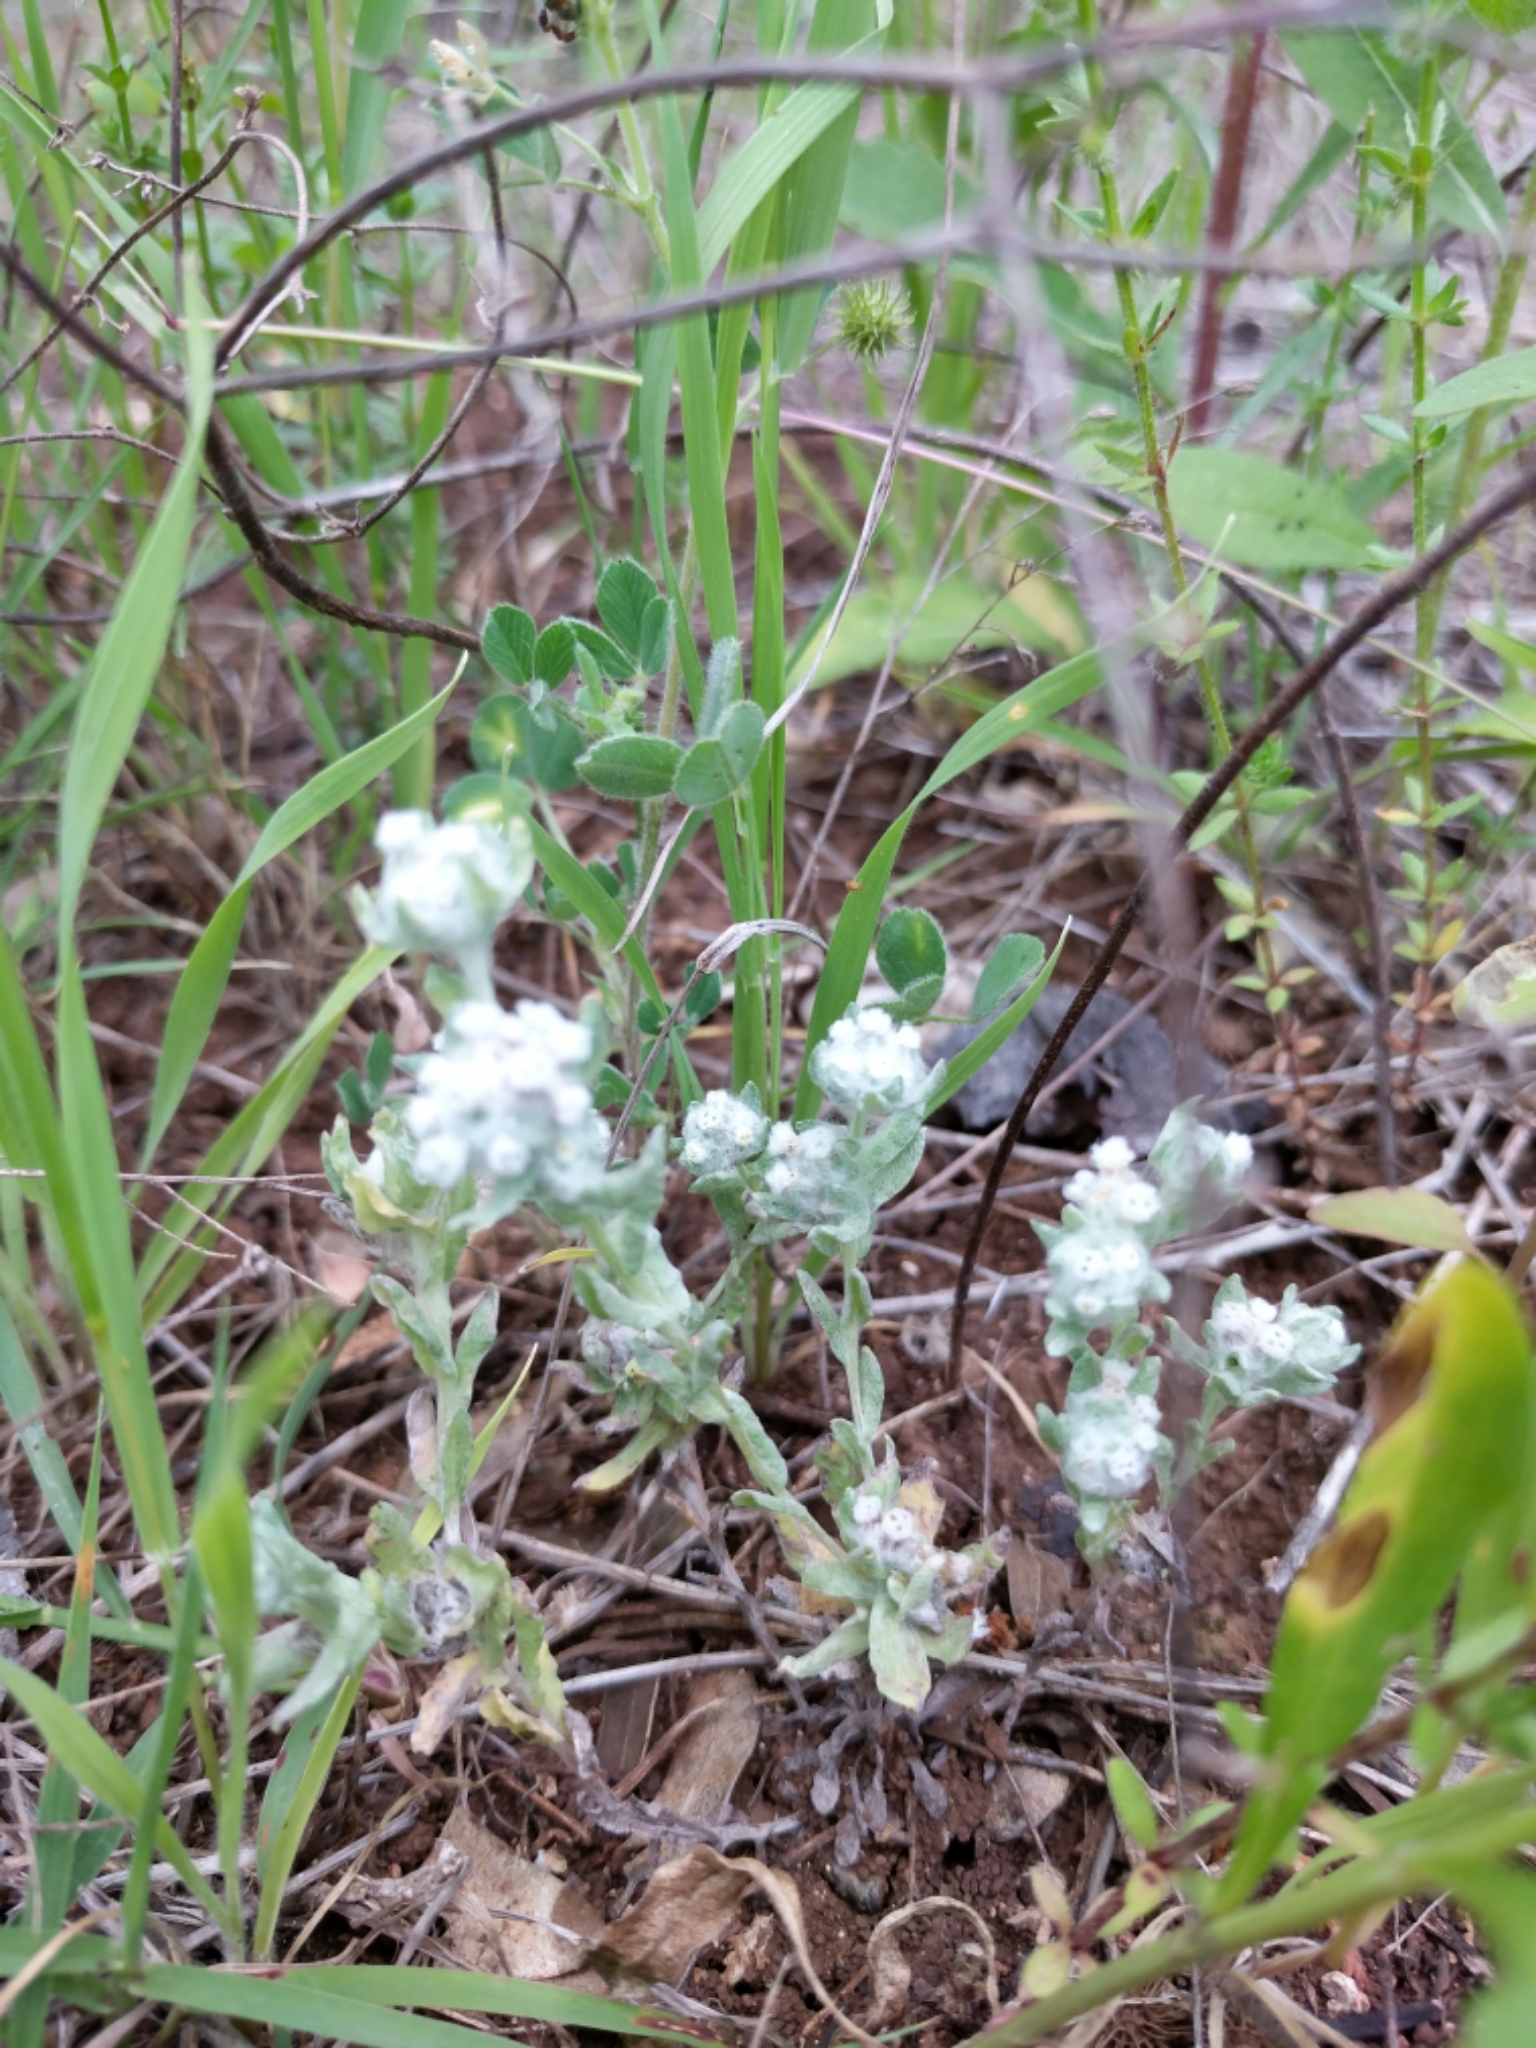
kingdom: Plantae
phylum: Tracheophyta
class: Magnoliopsida
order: Asterales
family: Asteraceae
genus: Diaperia
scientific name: Diaperia verna
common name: Many-stem rabbit-tobacco
